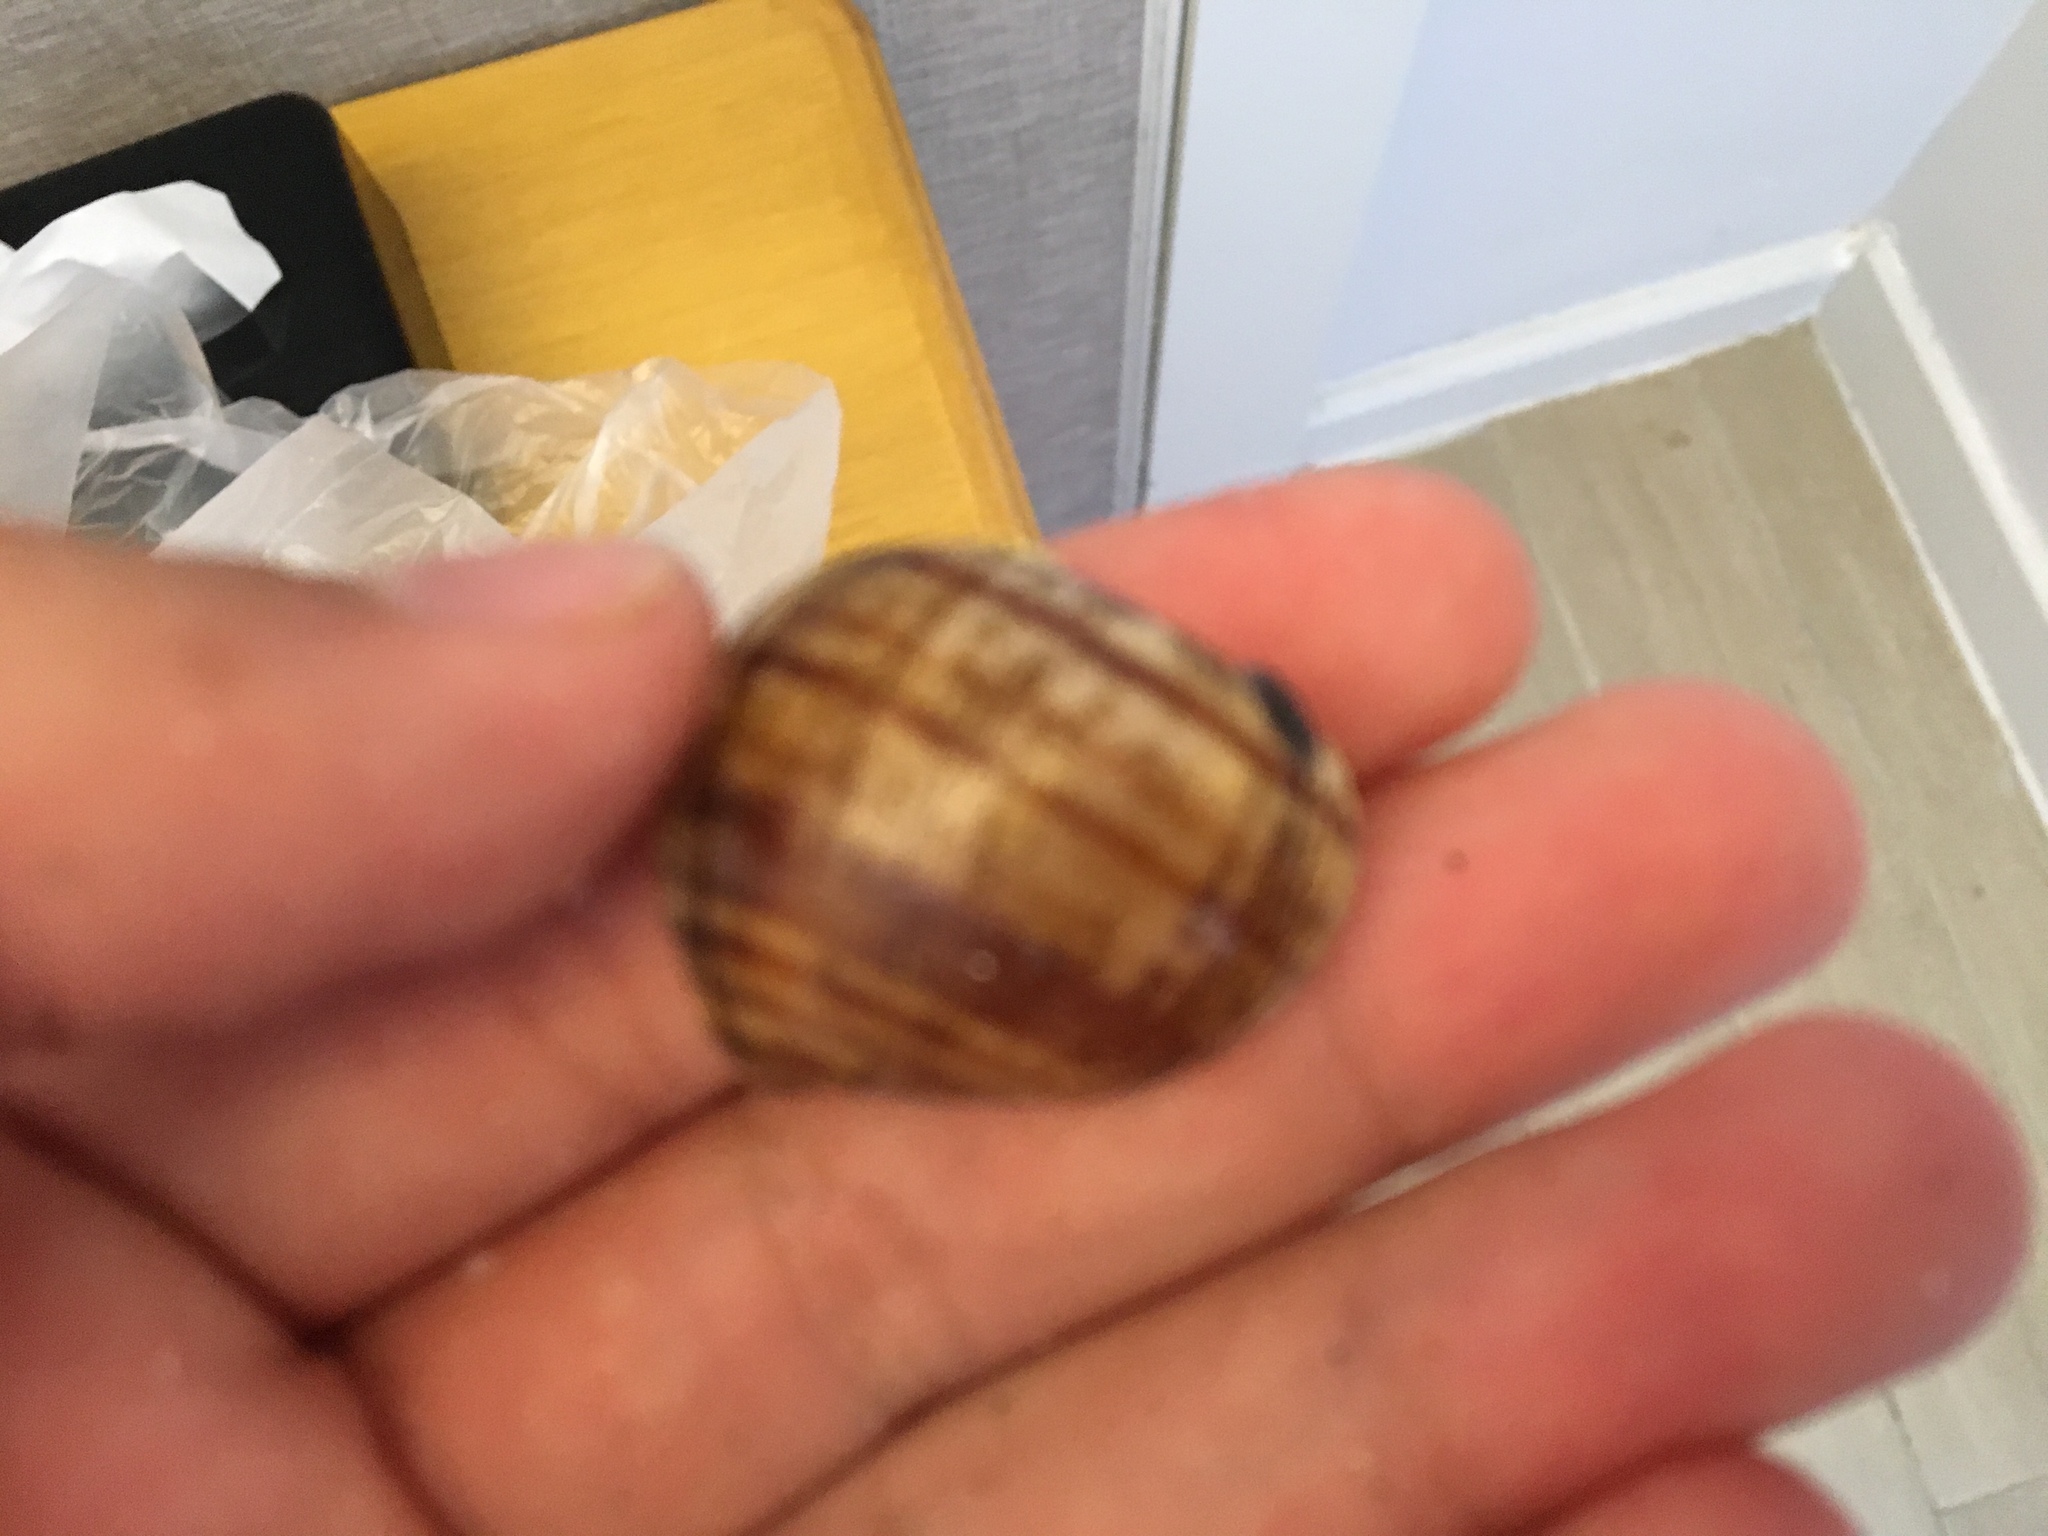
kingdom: Animalia
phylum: Mollusca
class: Gastropoda
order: Architaenioglossa
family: Ampullariidae
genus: Pomacea
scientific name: Pomacea canaliculata
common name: Channeled applesnail
